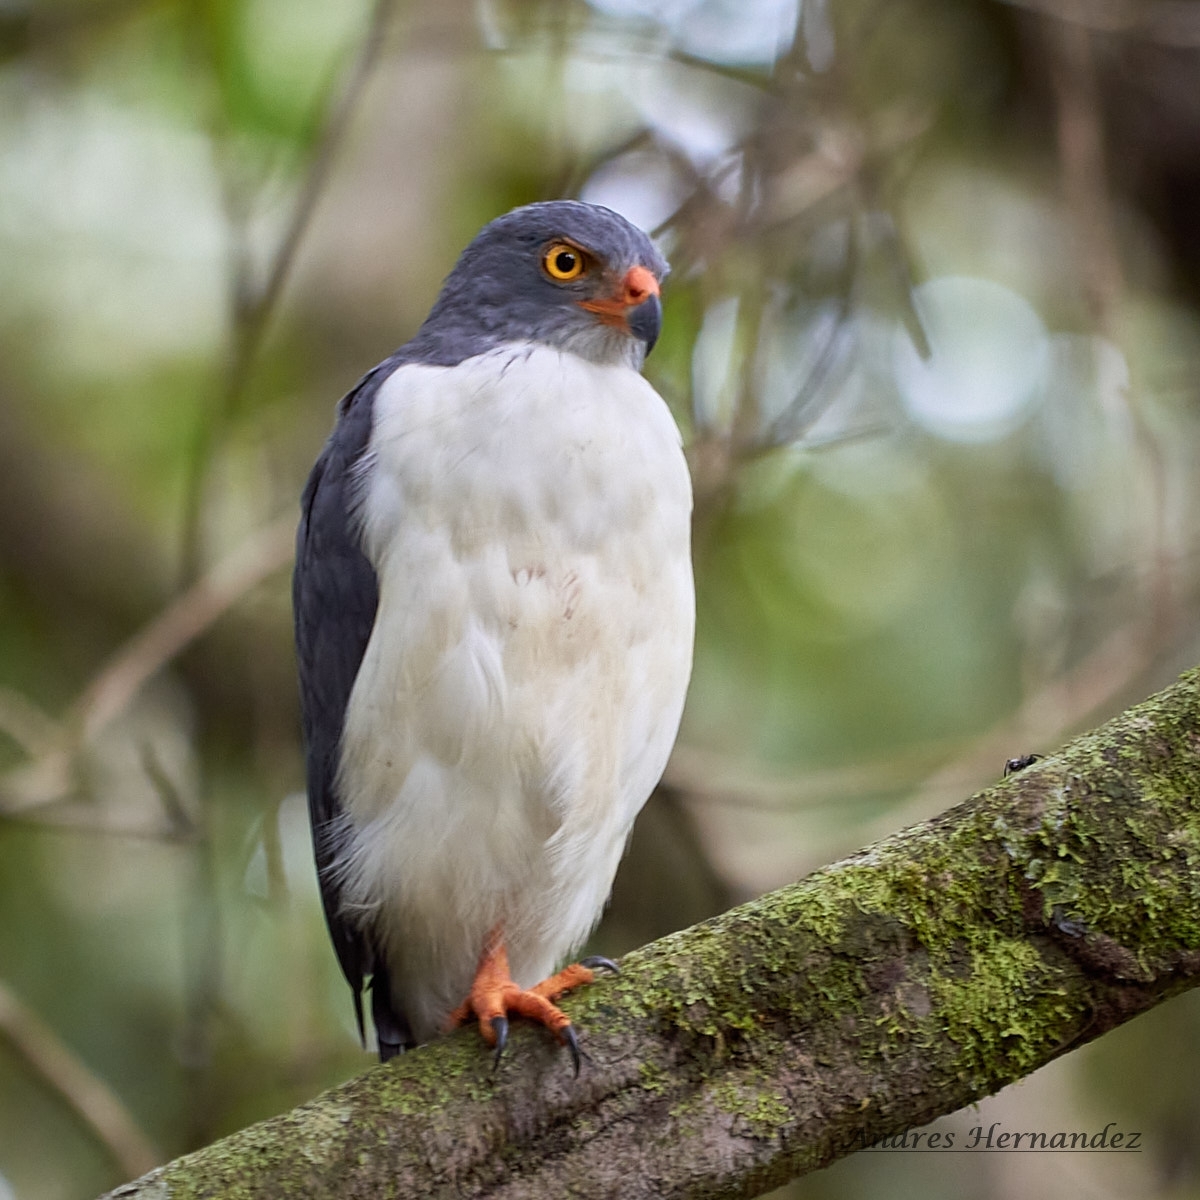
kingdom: Animalia
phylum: Chordata
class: Aves
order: Accipitriformes
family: Accipitridae
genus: Leucopternis
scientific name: Leucopternis semiplumbeus
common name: Semiplumbeous hawk
